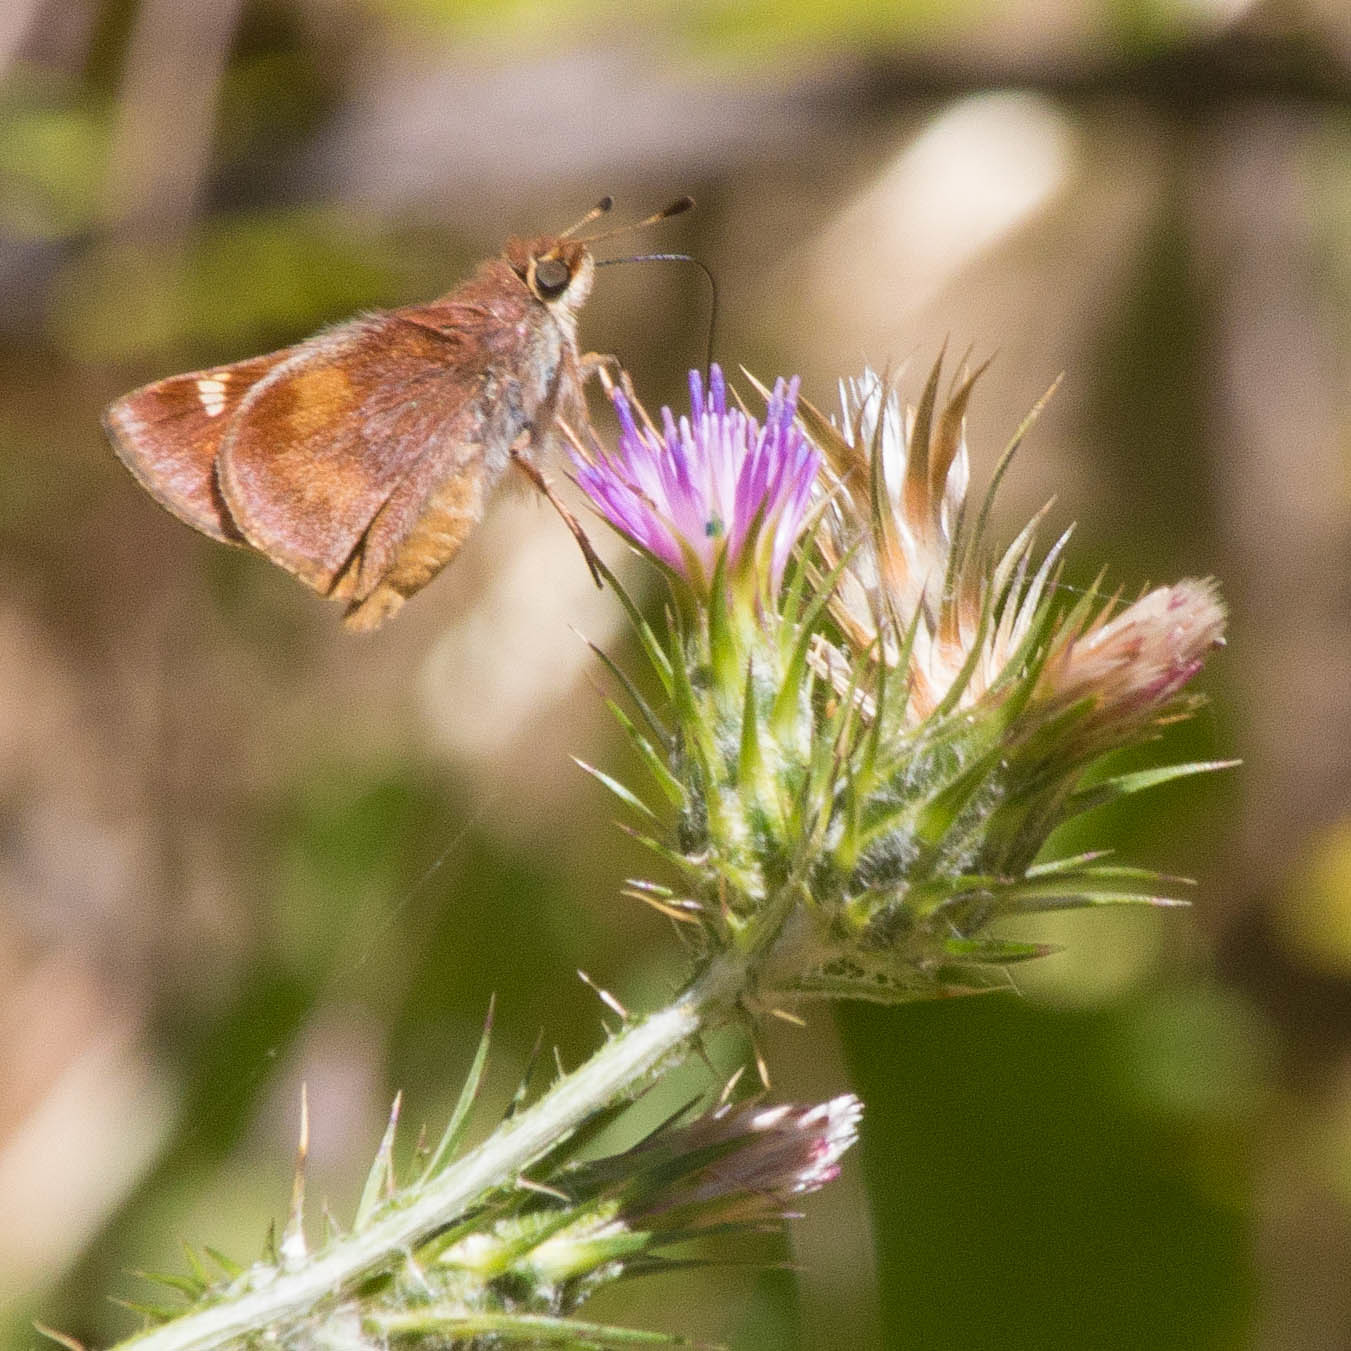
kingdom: Animalia
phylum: Arthropoda
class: Insecta
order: Lepidoptera
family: Hesperiidae
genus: Lon
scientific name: Lon melane
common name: Umber skipper
